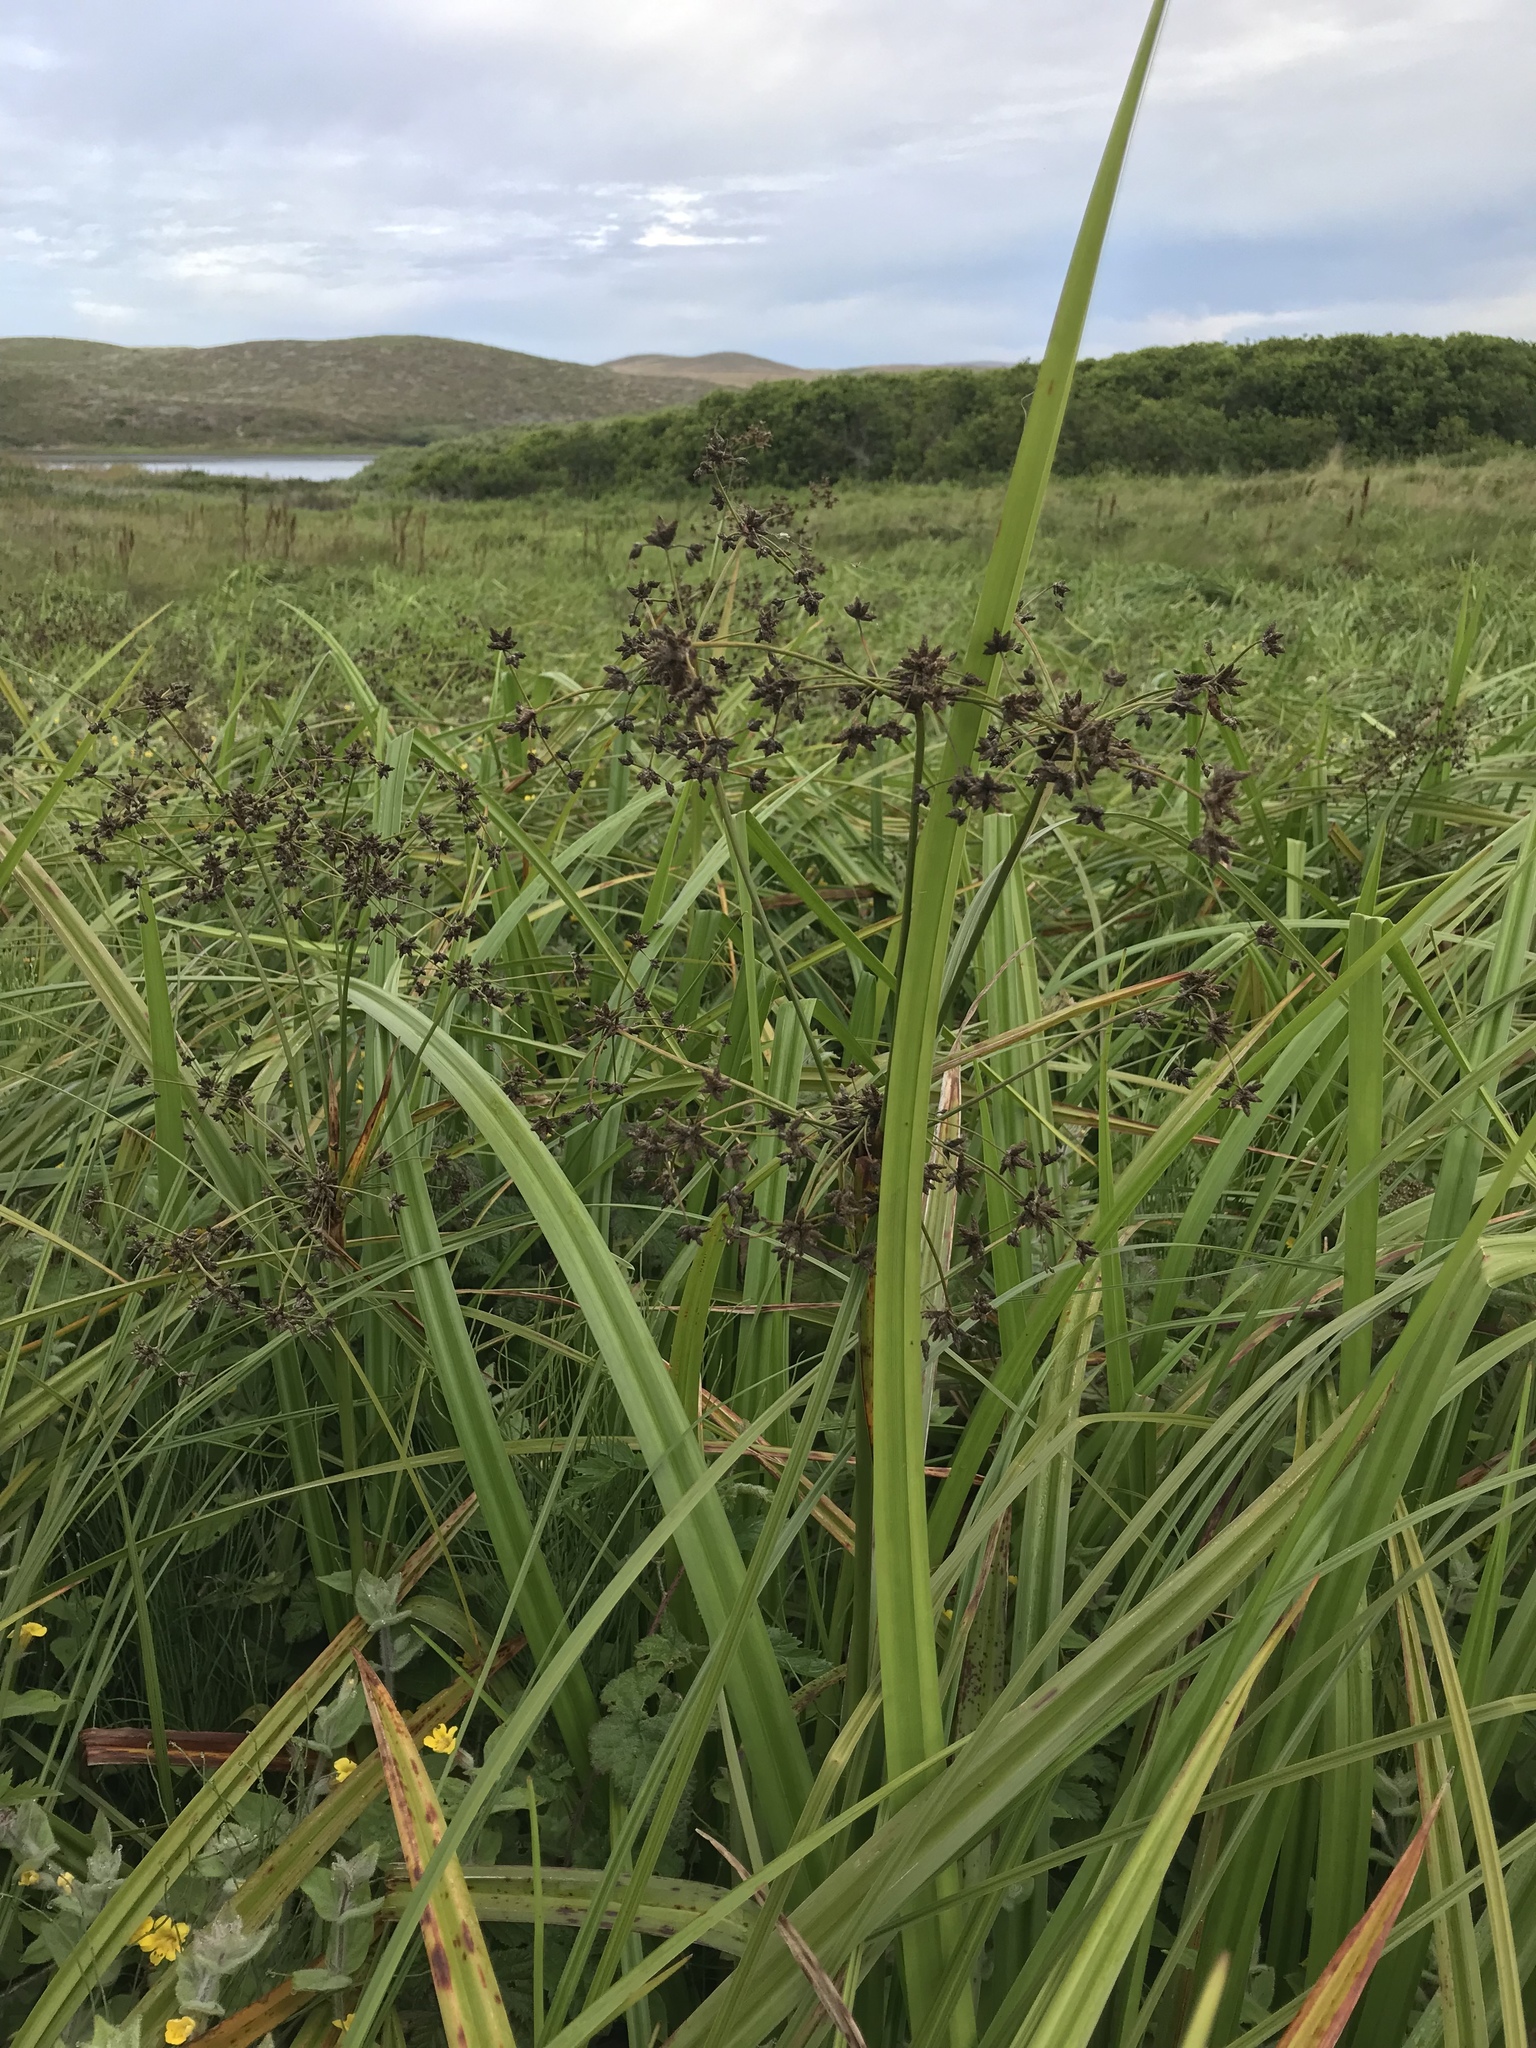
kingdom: Plantae
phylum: Tracheophyta
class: Liliopsida
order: Poales
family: Cyperaceae
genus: Scirpus
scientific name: Scirpus microcarpus
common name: Panicled bulrush
